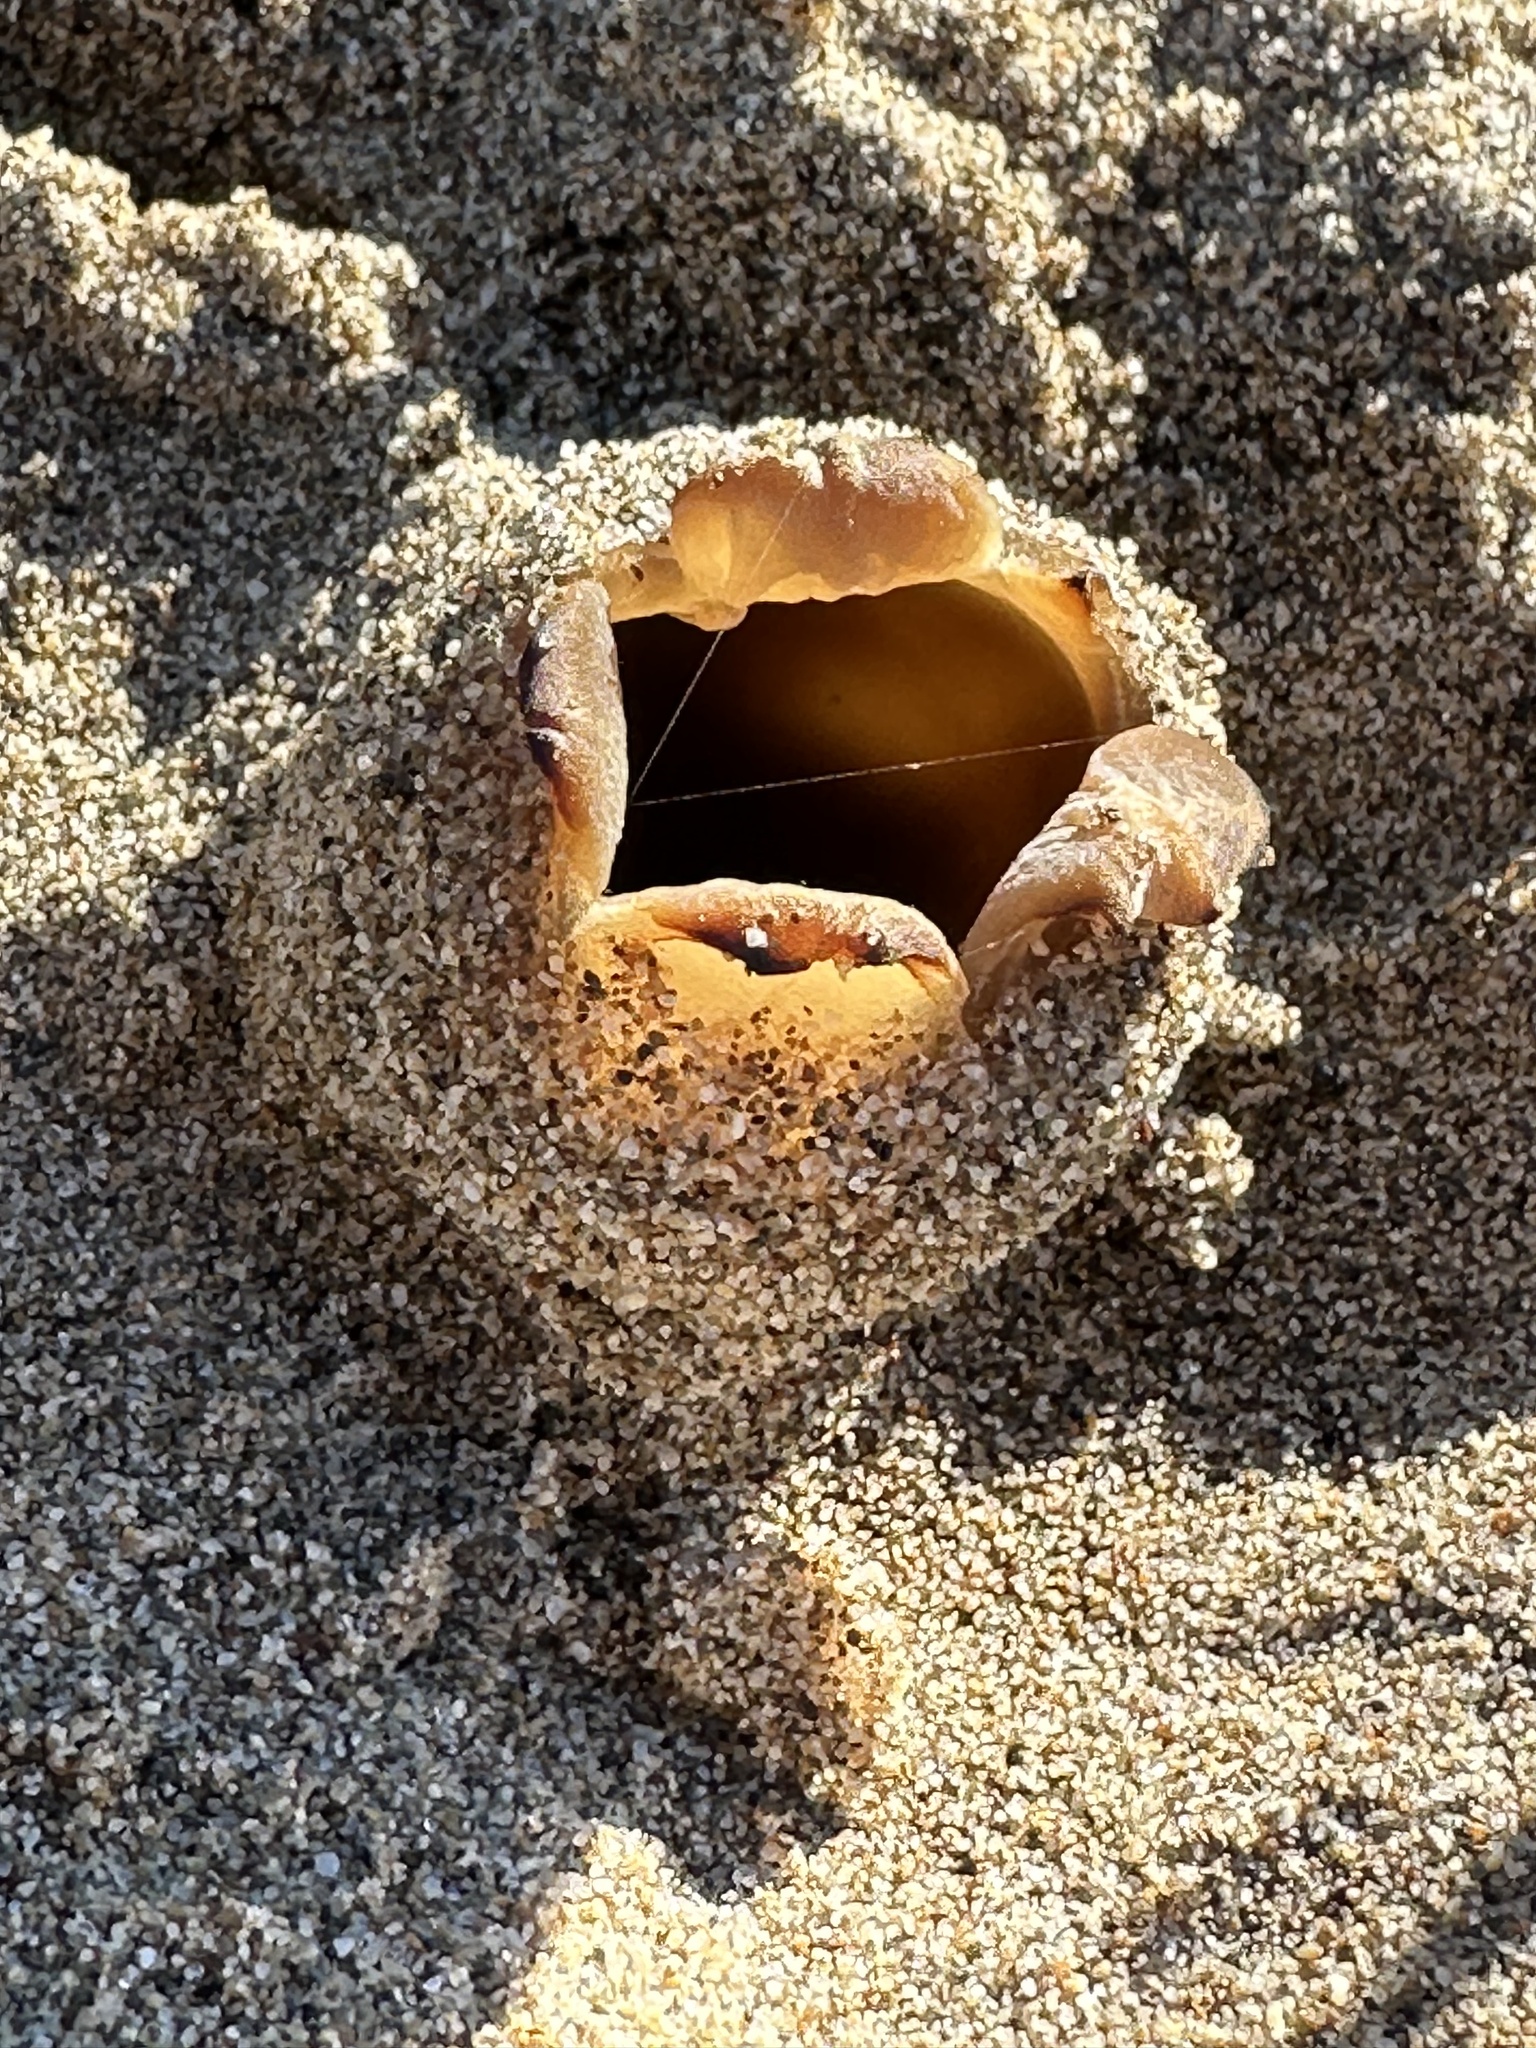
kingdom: Fungi
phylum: Ascomycota
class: Pezizomycetes
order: Pezizales
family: Pezizaceae
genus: Peziza
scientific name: Peziza ammophila
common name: Dune cup
